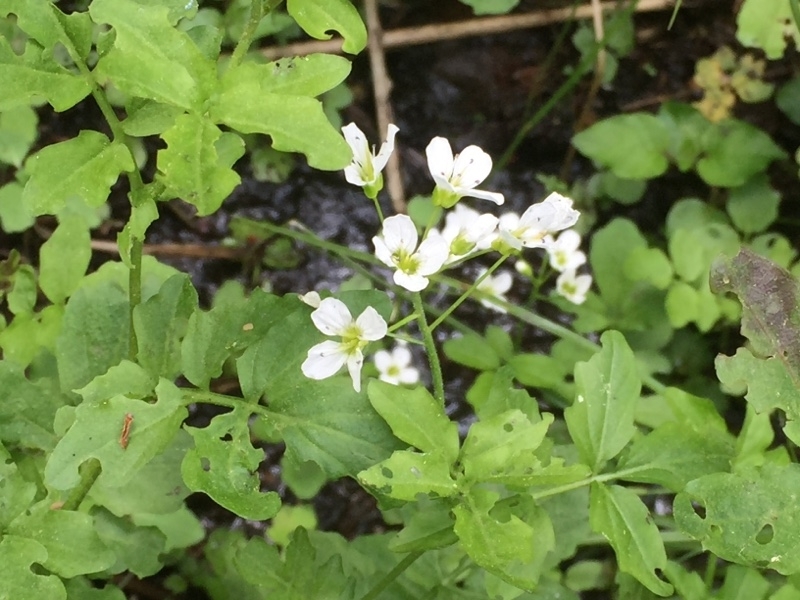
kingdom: Plantae
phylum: Tracheophyta
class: Magnoliopsida
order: Brassicales
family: Brassicaceae
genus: Cardamine
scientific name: Cardamine amara
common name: Large bitter-cress
